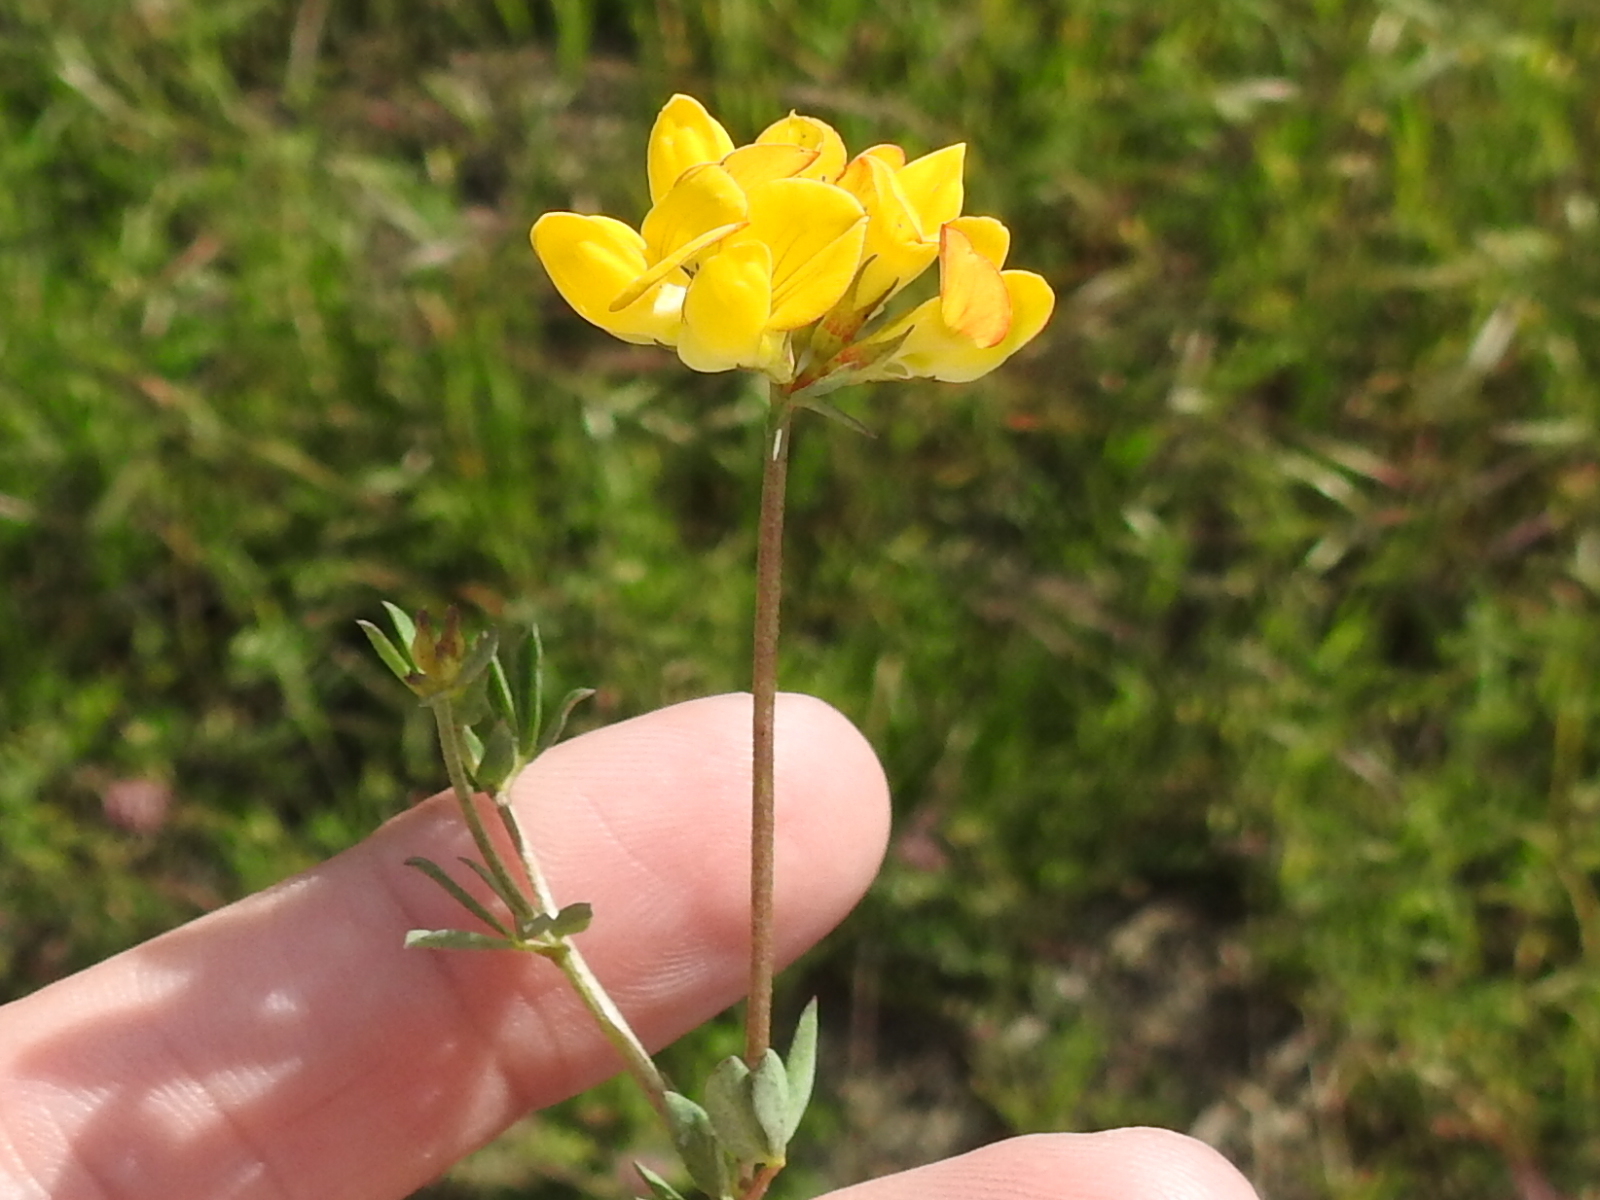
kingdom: Plantae
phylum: Tracheophyta
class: Magnoliopsida
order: Fabales
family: Fabaceae
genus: Lotus
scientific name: Lotus corniculatus
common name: Common bird's-foot-trefoil
